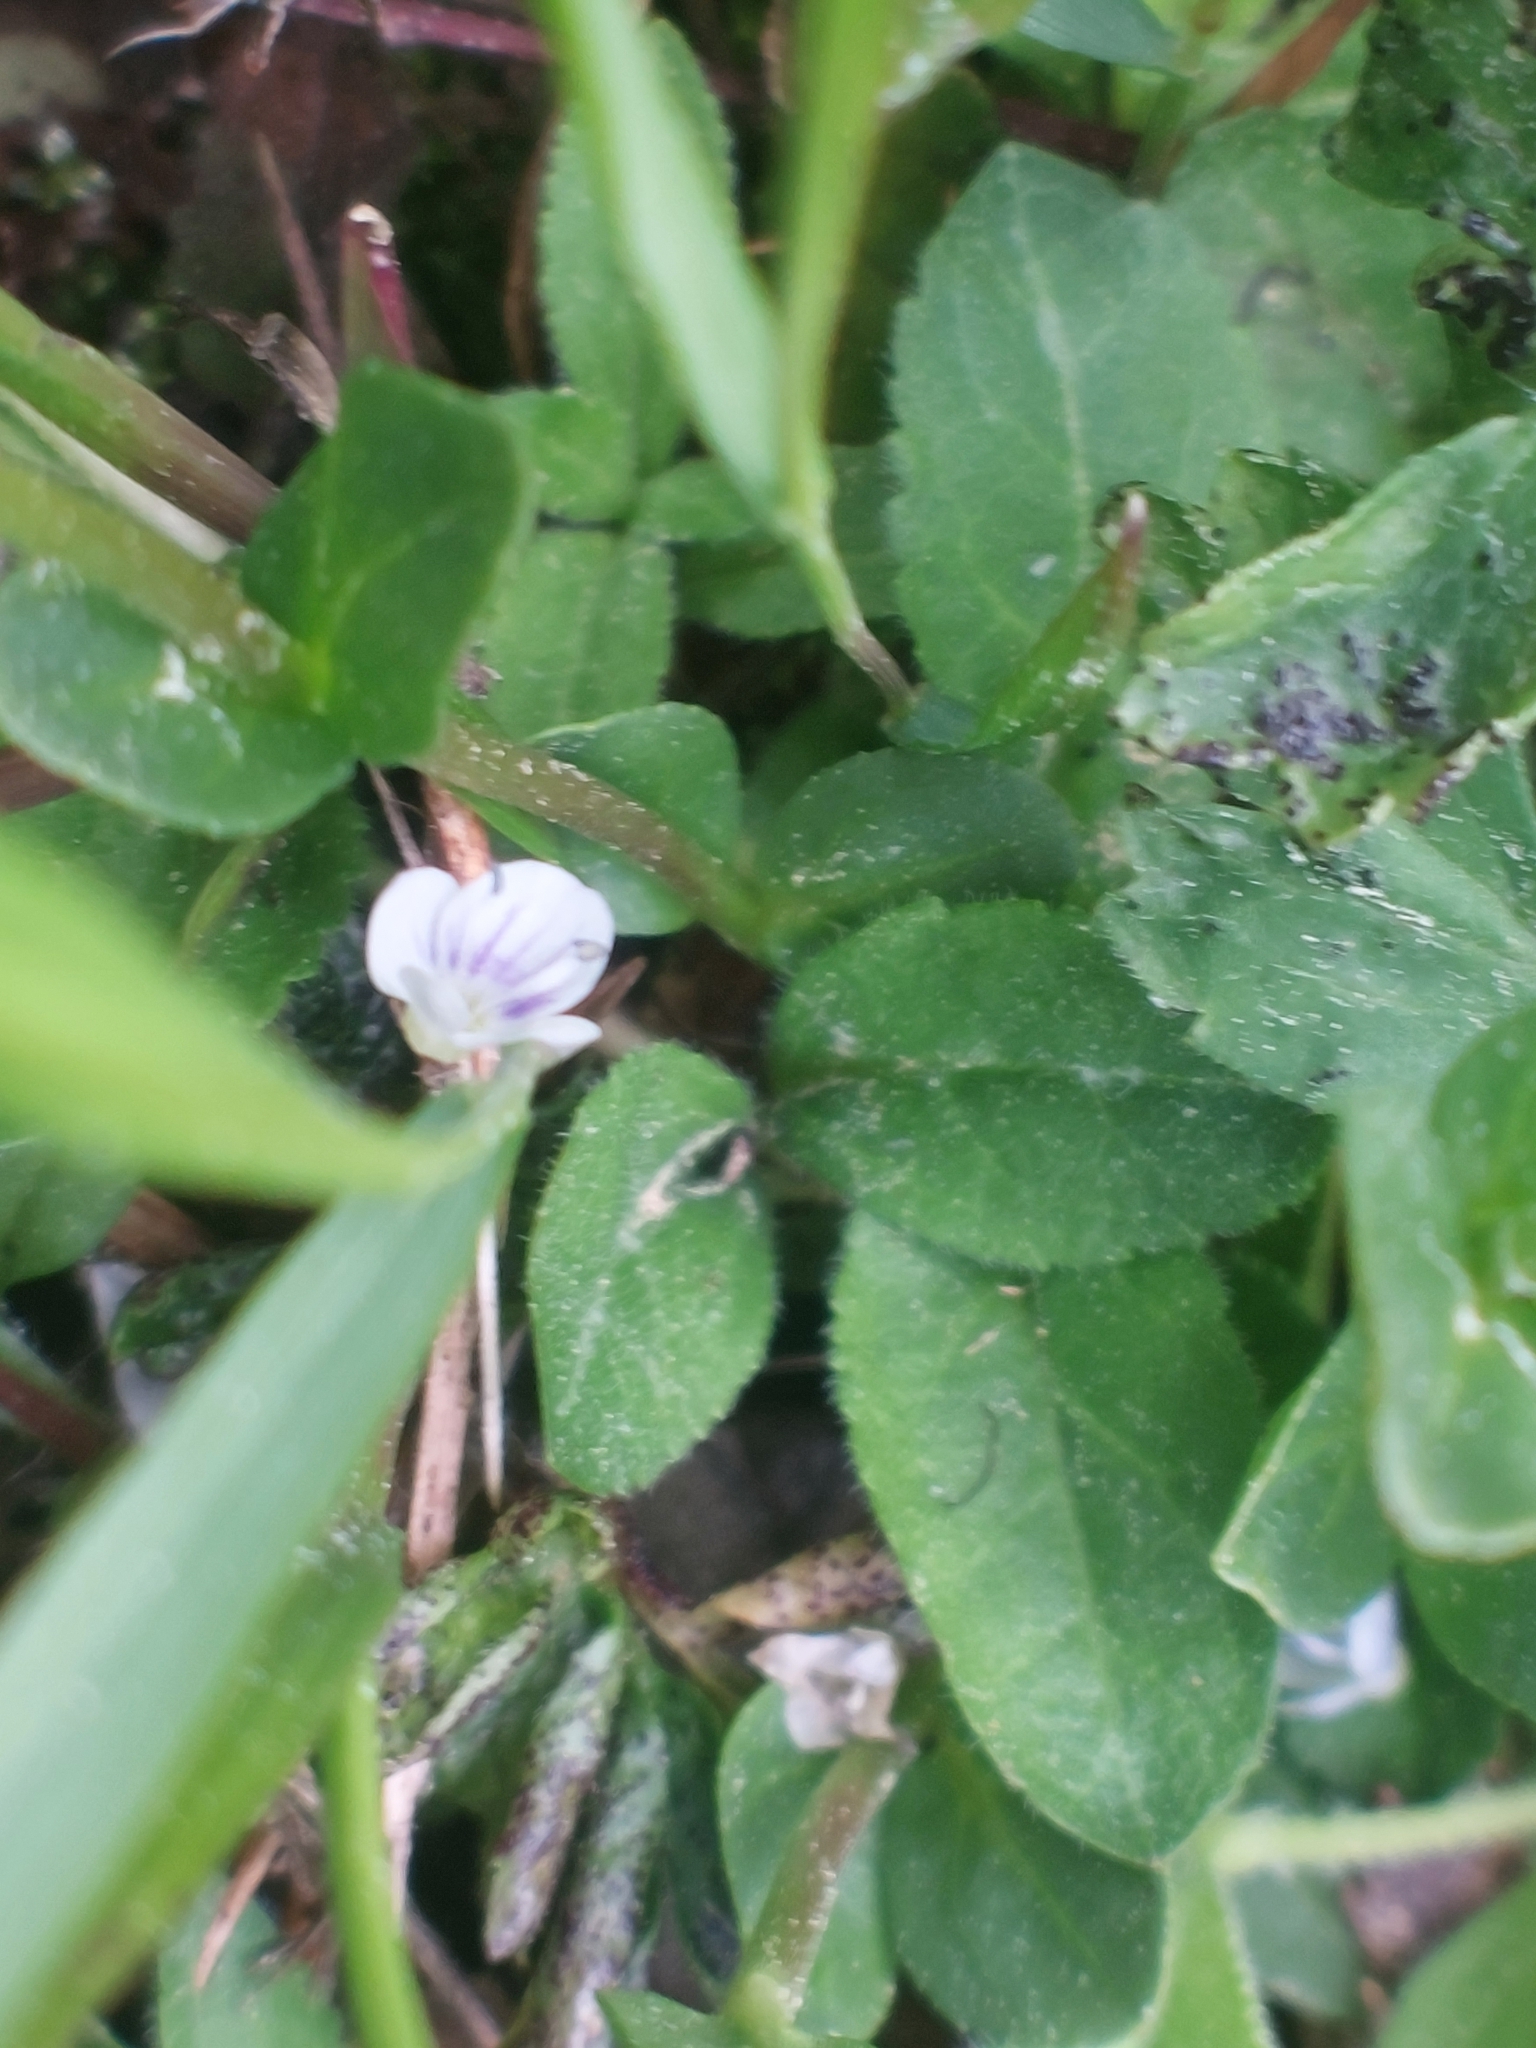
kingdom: Plantae
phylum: Tracheophyta
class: Magnoliopsida
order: Lamiales
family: Plantaginaceae
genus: Veronica
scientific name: Veronica serpyllifolia
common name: Thyme-leaved speedwell
